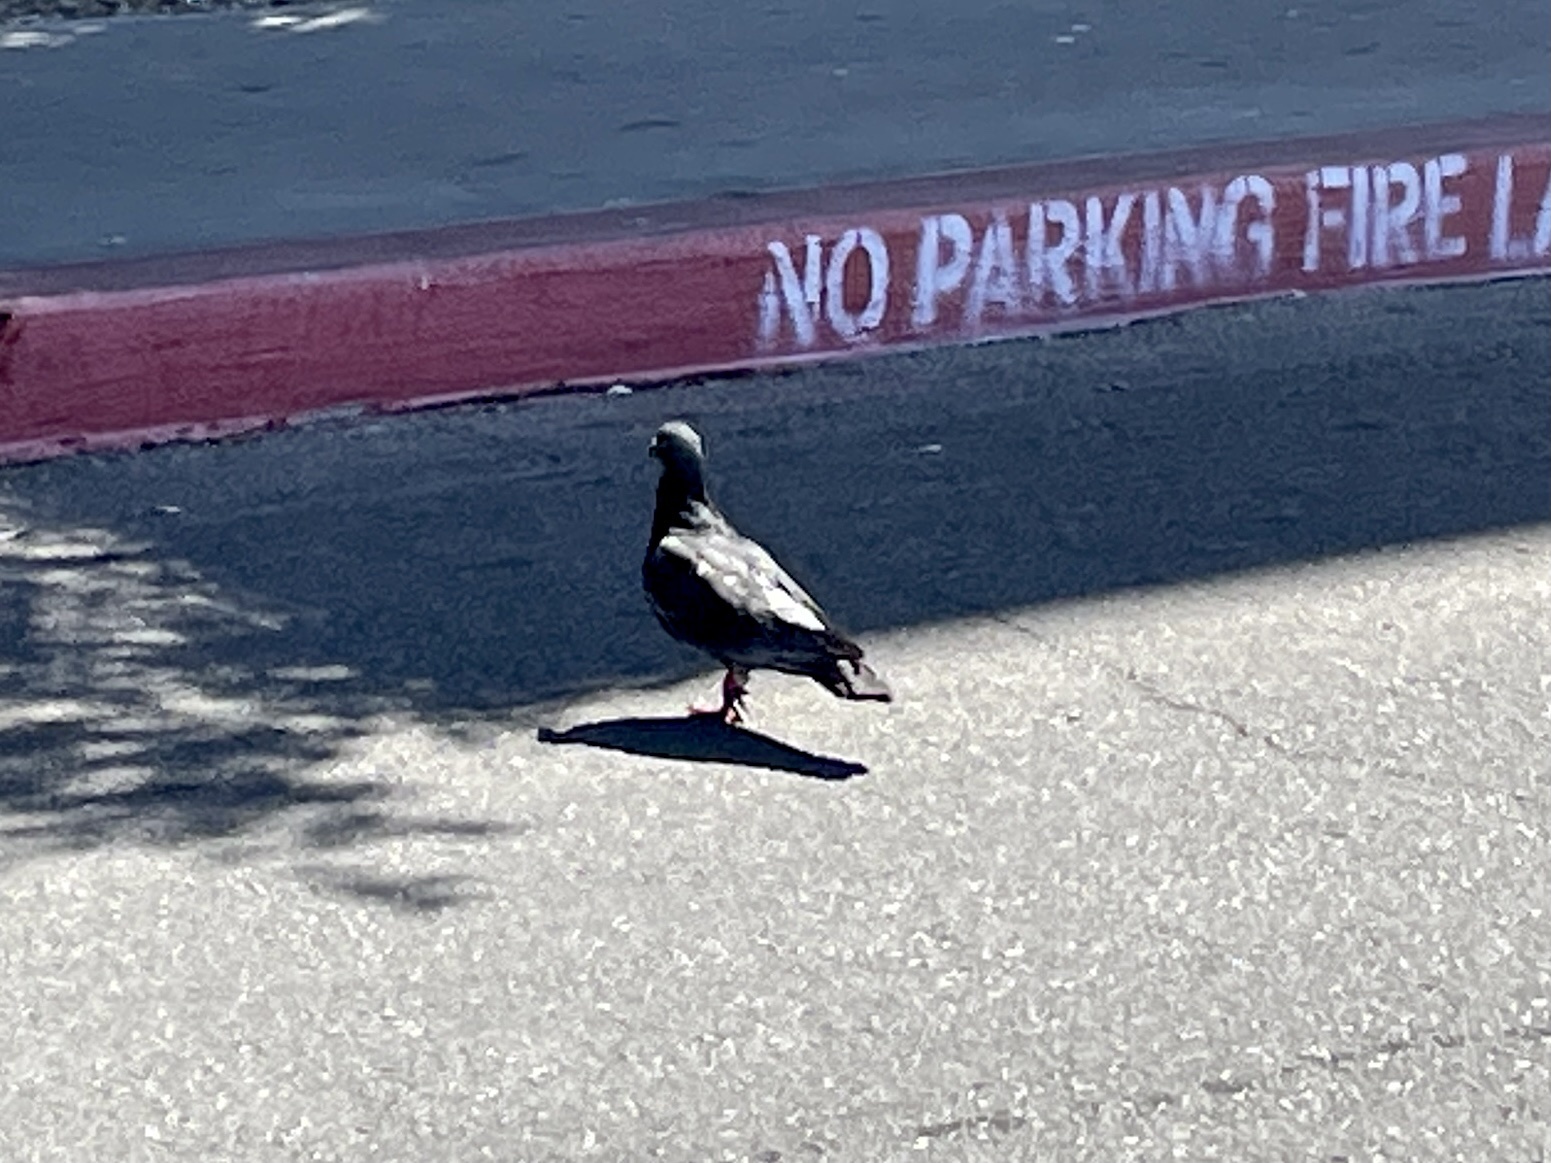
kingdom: Animalia
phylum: Chordata
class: Aves
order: Columbiformes
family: Columbidae
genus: Columba
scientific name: Columba livia
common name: Rock pigeon
